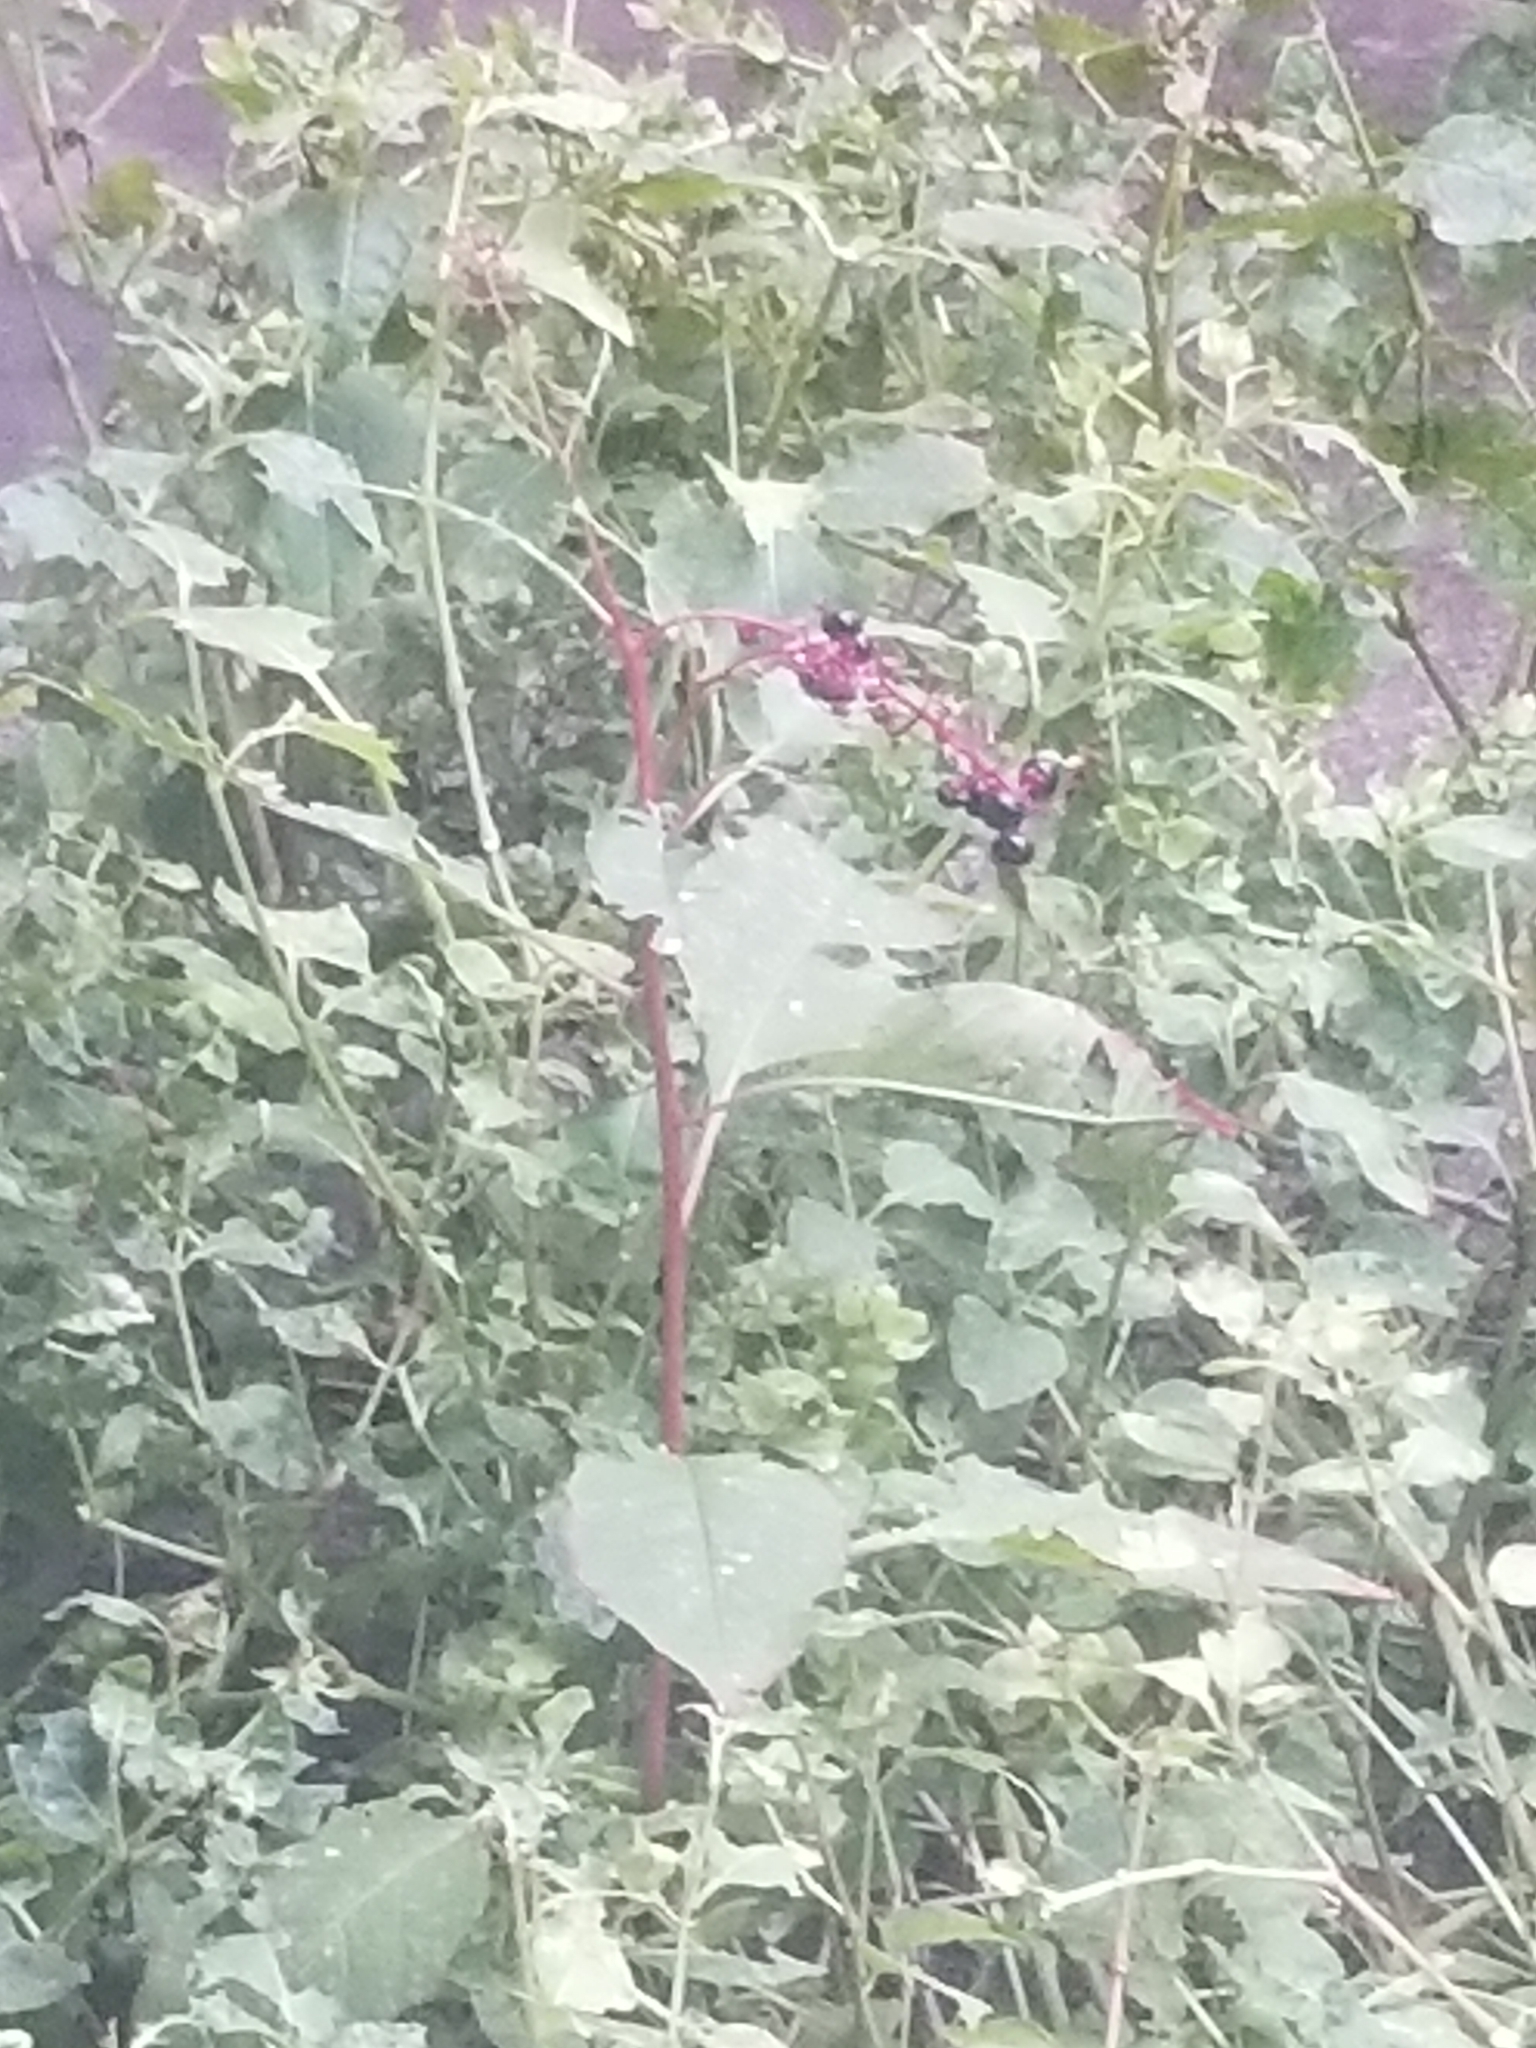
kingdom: Plantae
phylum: Tracheophyta
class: Magnoliopsida
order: Caryophyllales
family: Phytolaccaceae
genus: Phytolacca
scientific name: Phytolacca americana
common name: American pokeweed
